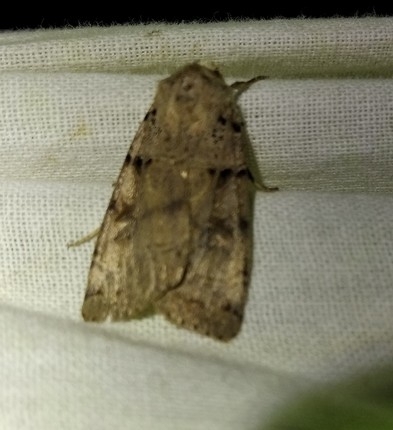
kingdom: Animalia
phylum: Arthropoda
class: Insecta
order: Lepidoptera
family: Noctuidae
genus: Eugnorisma
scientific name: Eugnorisma depuncta
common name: Plain clay
